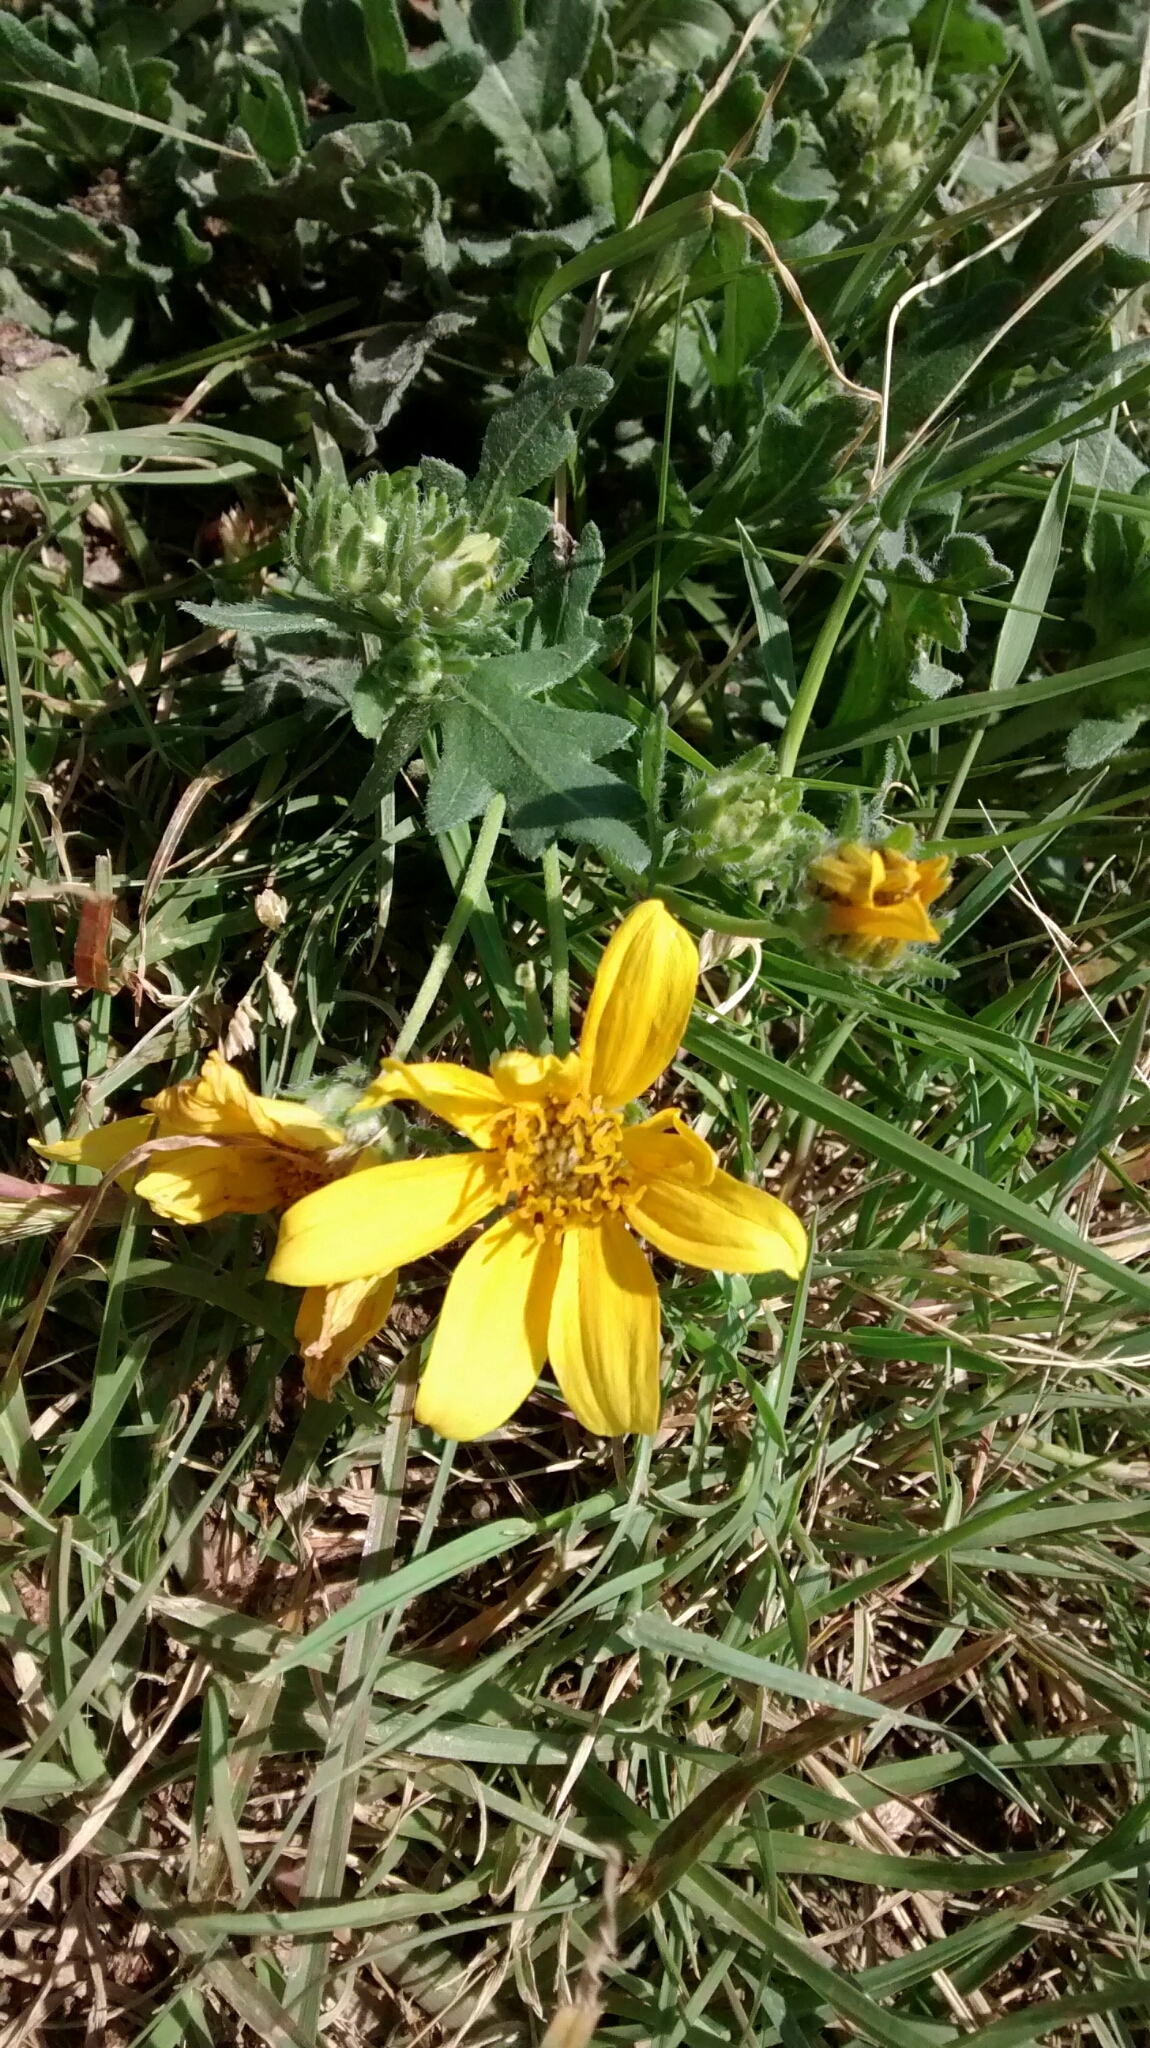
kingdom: Plantae
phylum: Tracheophyta
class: Magnoliopsida
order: Asterales
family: Asteraceae
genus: Engelmannia
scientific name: Engelmannia peristenia
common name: Engelmann's daisy
